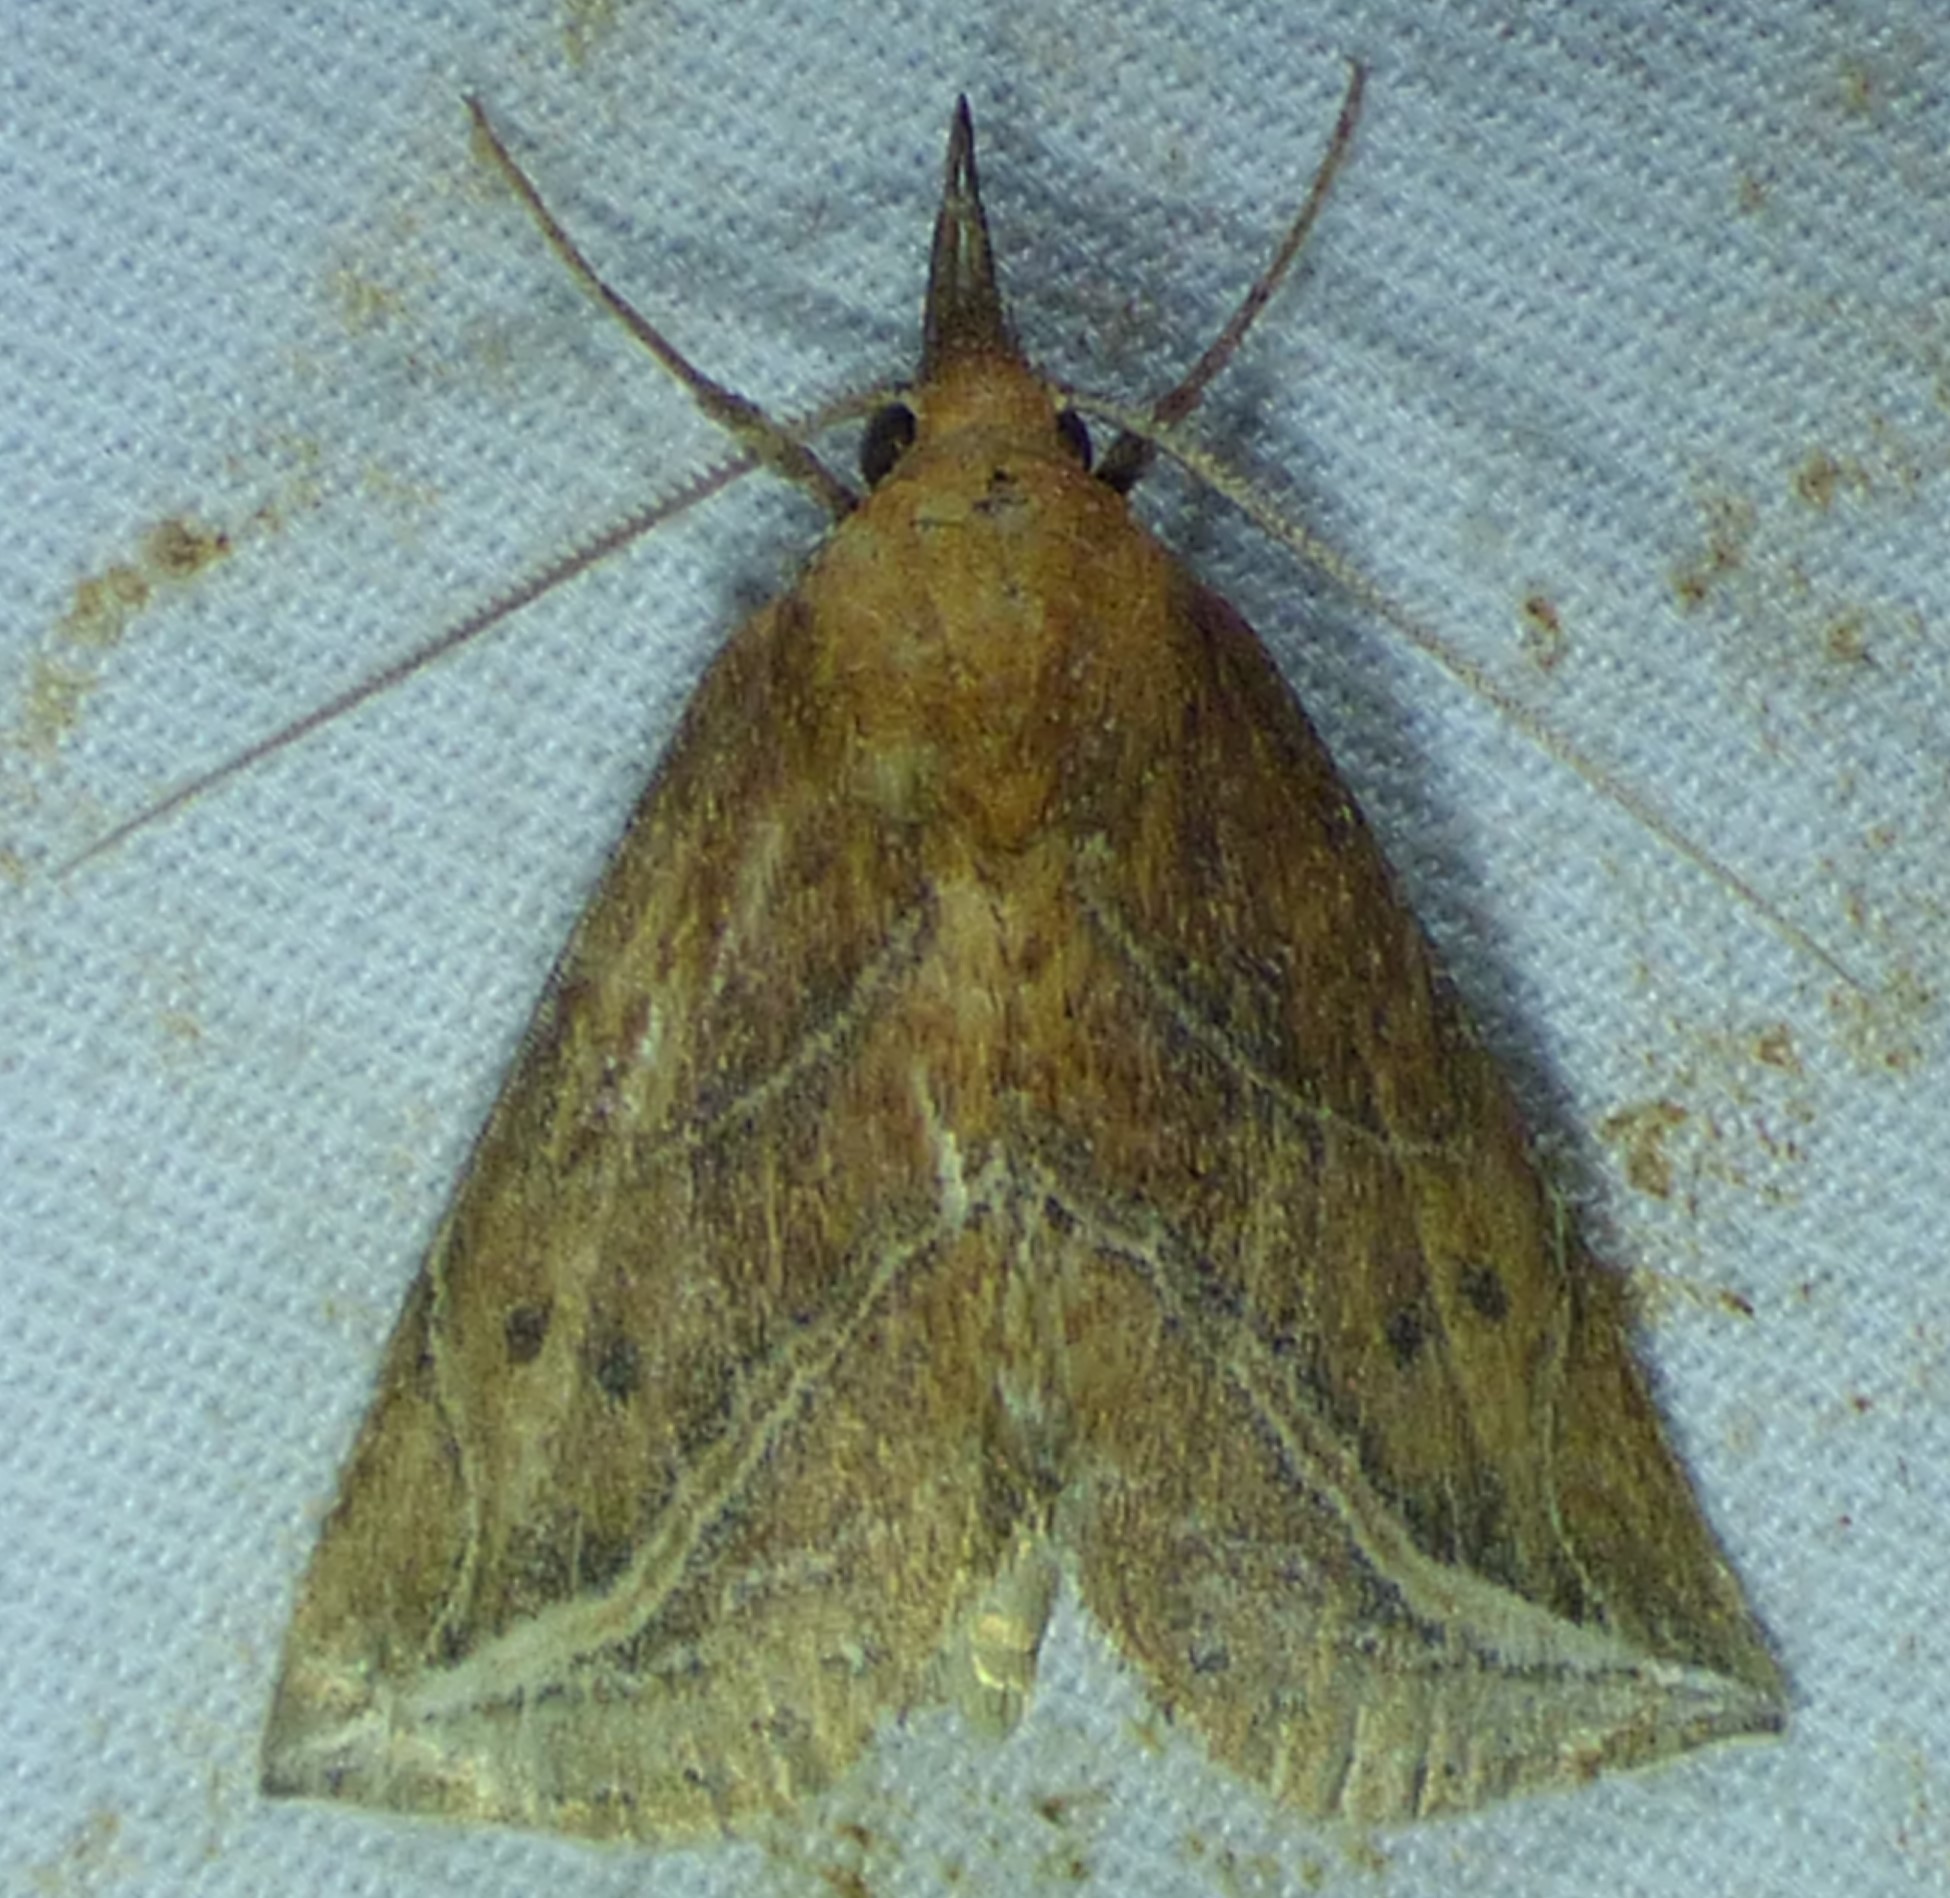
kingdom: Animalia
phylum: Arthropoda
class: Insecta
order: Lepidoptera
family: Erebidae
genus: Phyprosopus
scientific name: Phyprosopus callitrichoides
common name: Curved-lined owlet
